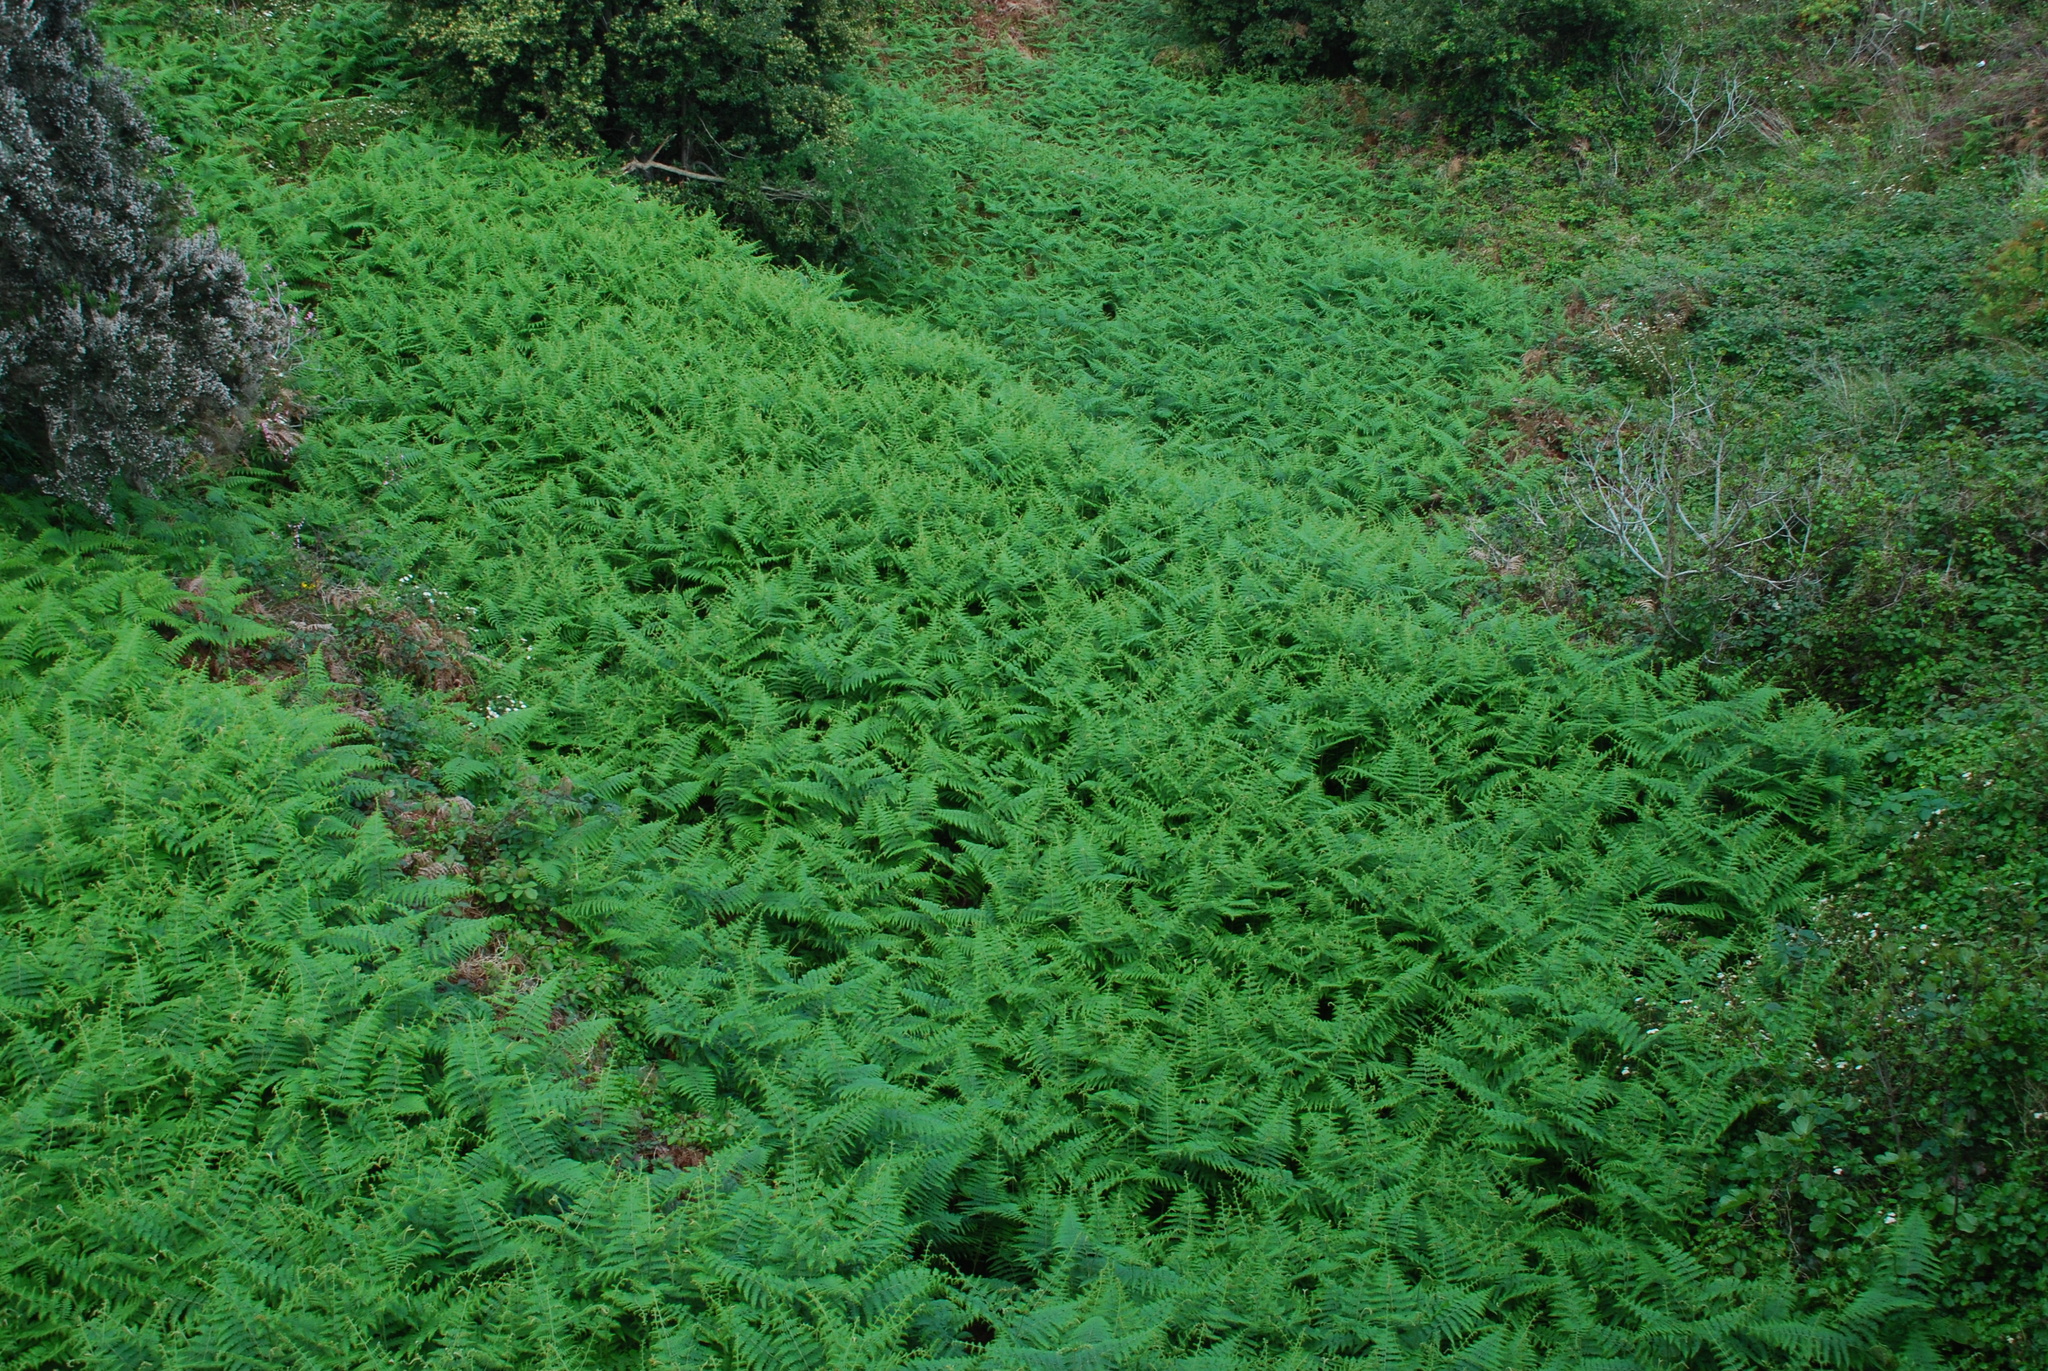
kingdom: Plantae
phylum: Tracheophyta
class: Polypodiopsida
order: Polypodiales
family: Dennstaedtiaceae
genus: Pteridium
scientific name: Pteridium aquilinum
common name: Bracken
